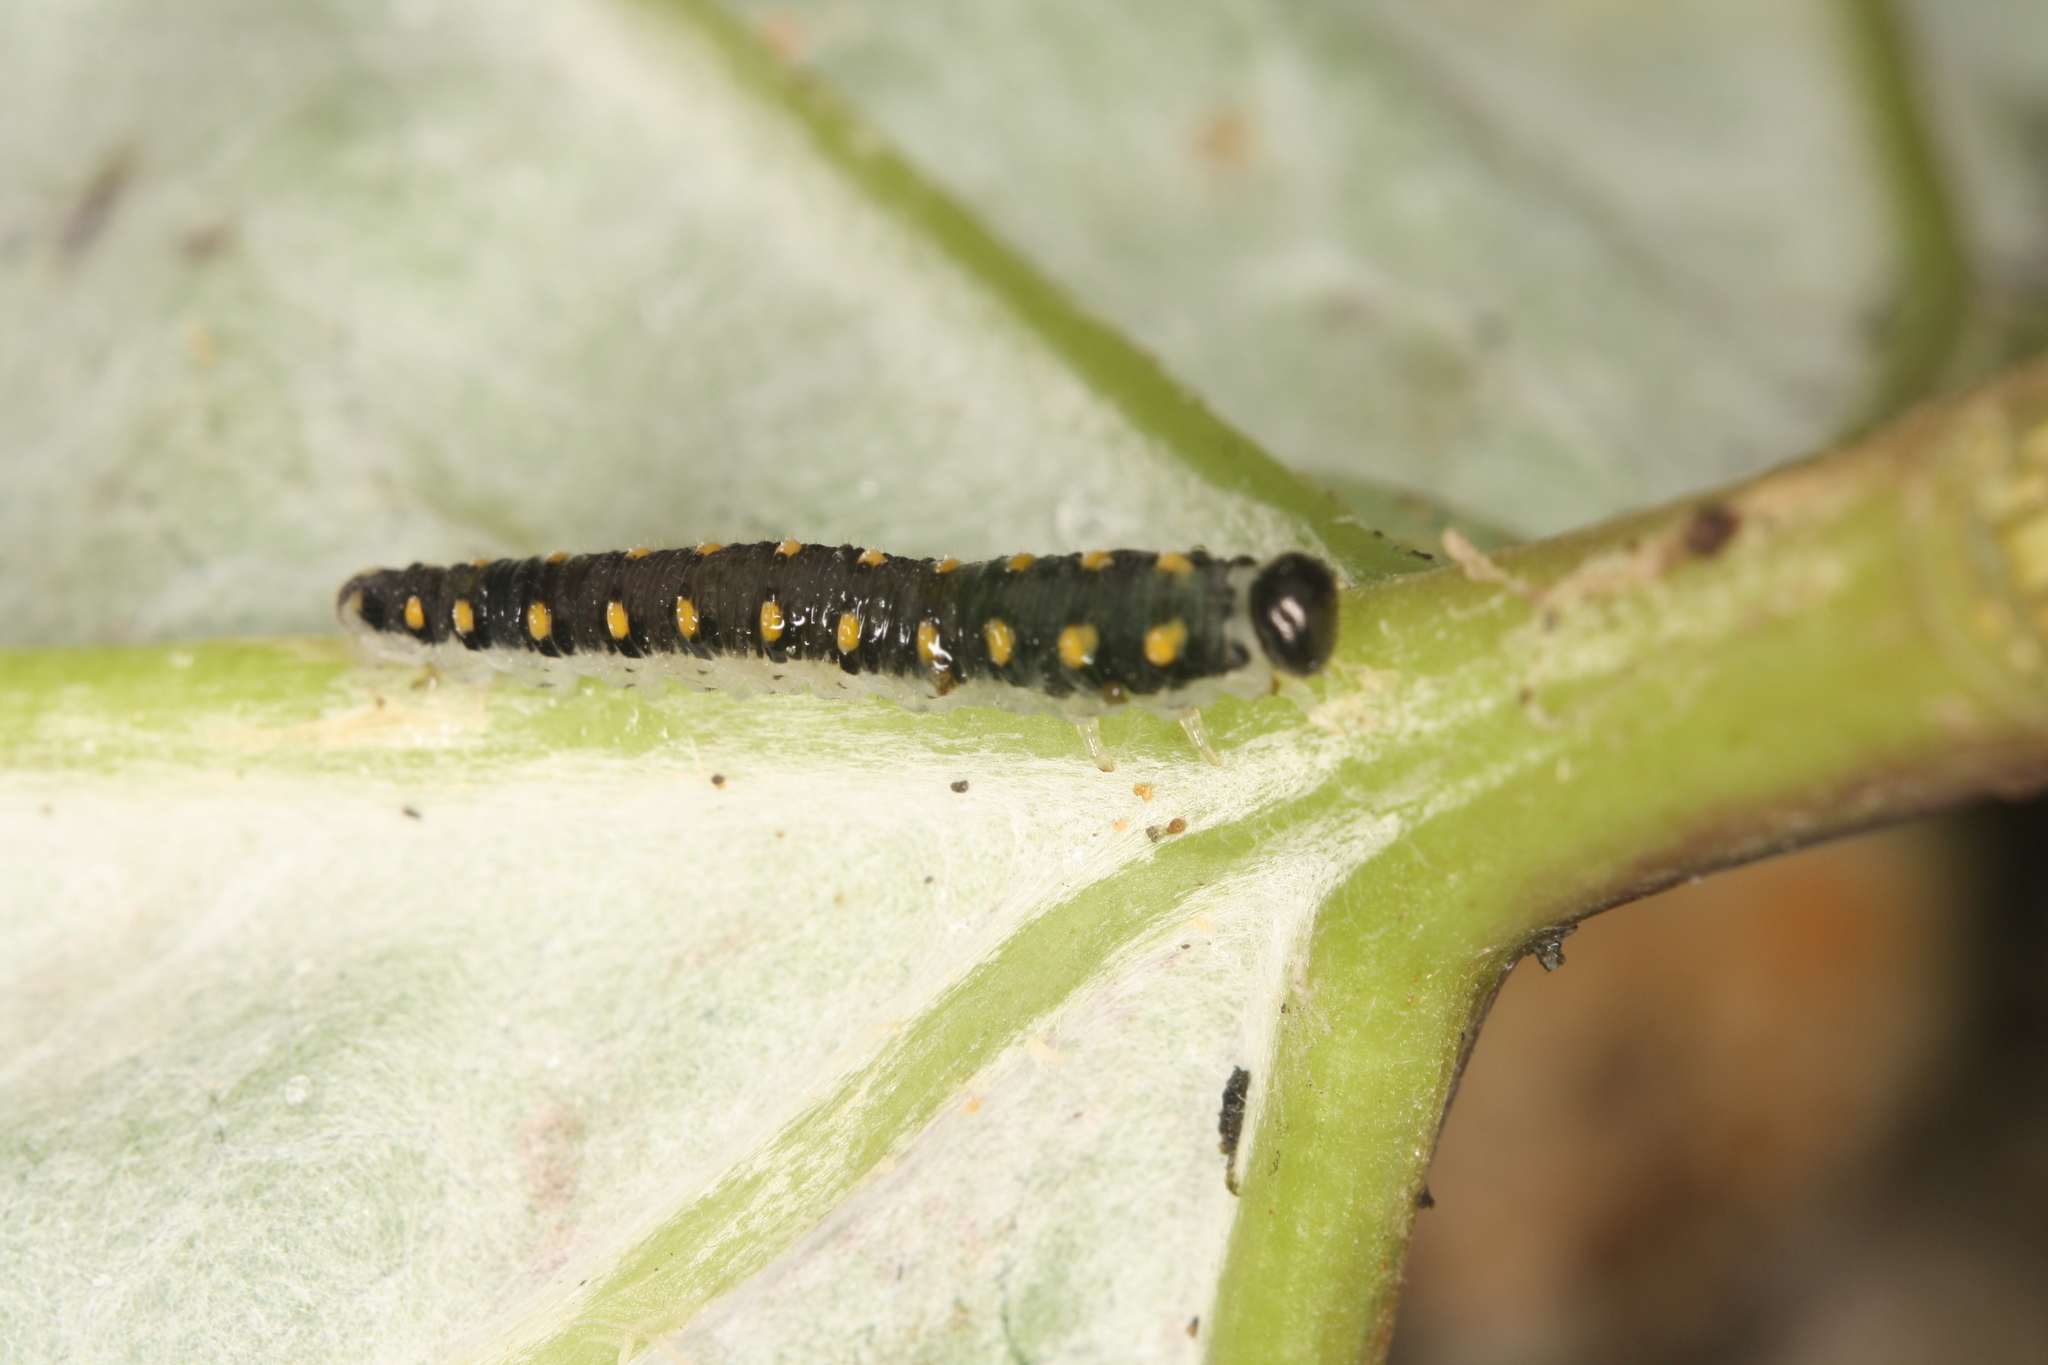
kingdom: Animalia
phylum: Arthropoda
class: Insecta
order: Hymenoptera
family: Tenthredinidae
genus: Tenthredo
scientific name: Tenthredo mandibularis
